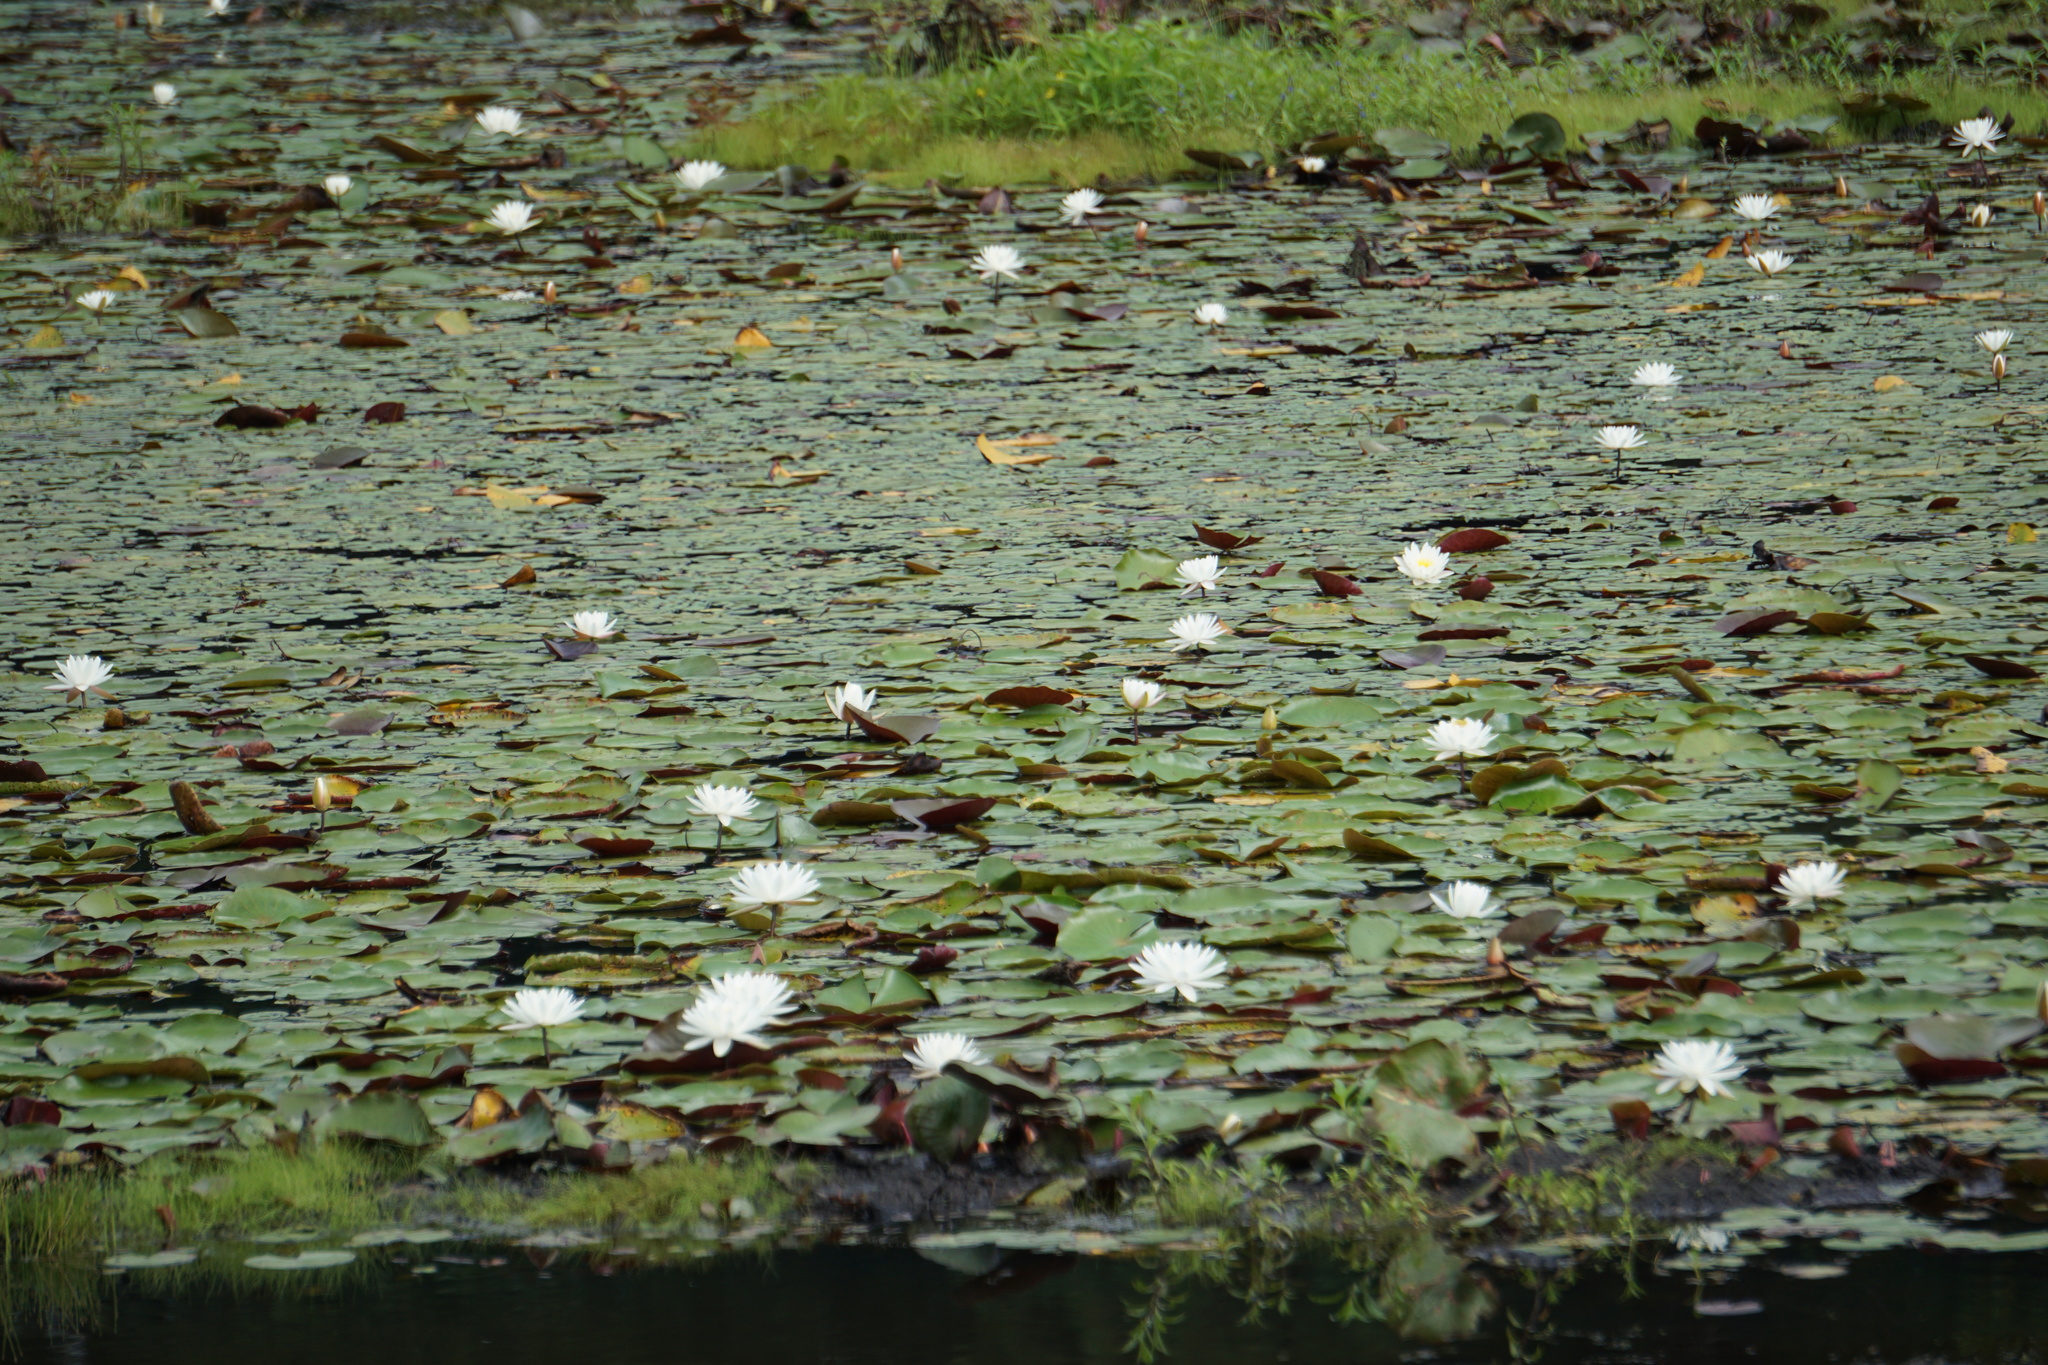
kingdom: Plantae
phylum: Tracheophyta
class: Magnoliopsida
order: Nymphaeales
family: Nymphaeaceae
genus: Nymphaea
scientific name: Nymphaea odorata
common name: Fragrant water-lily
